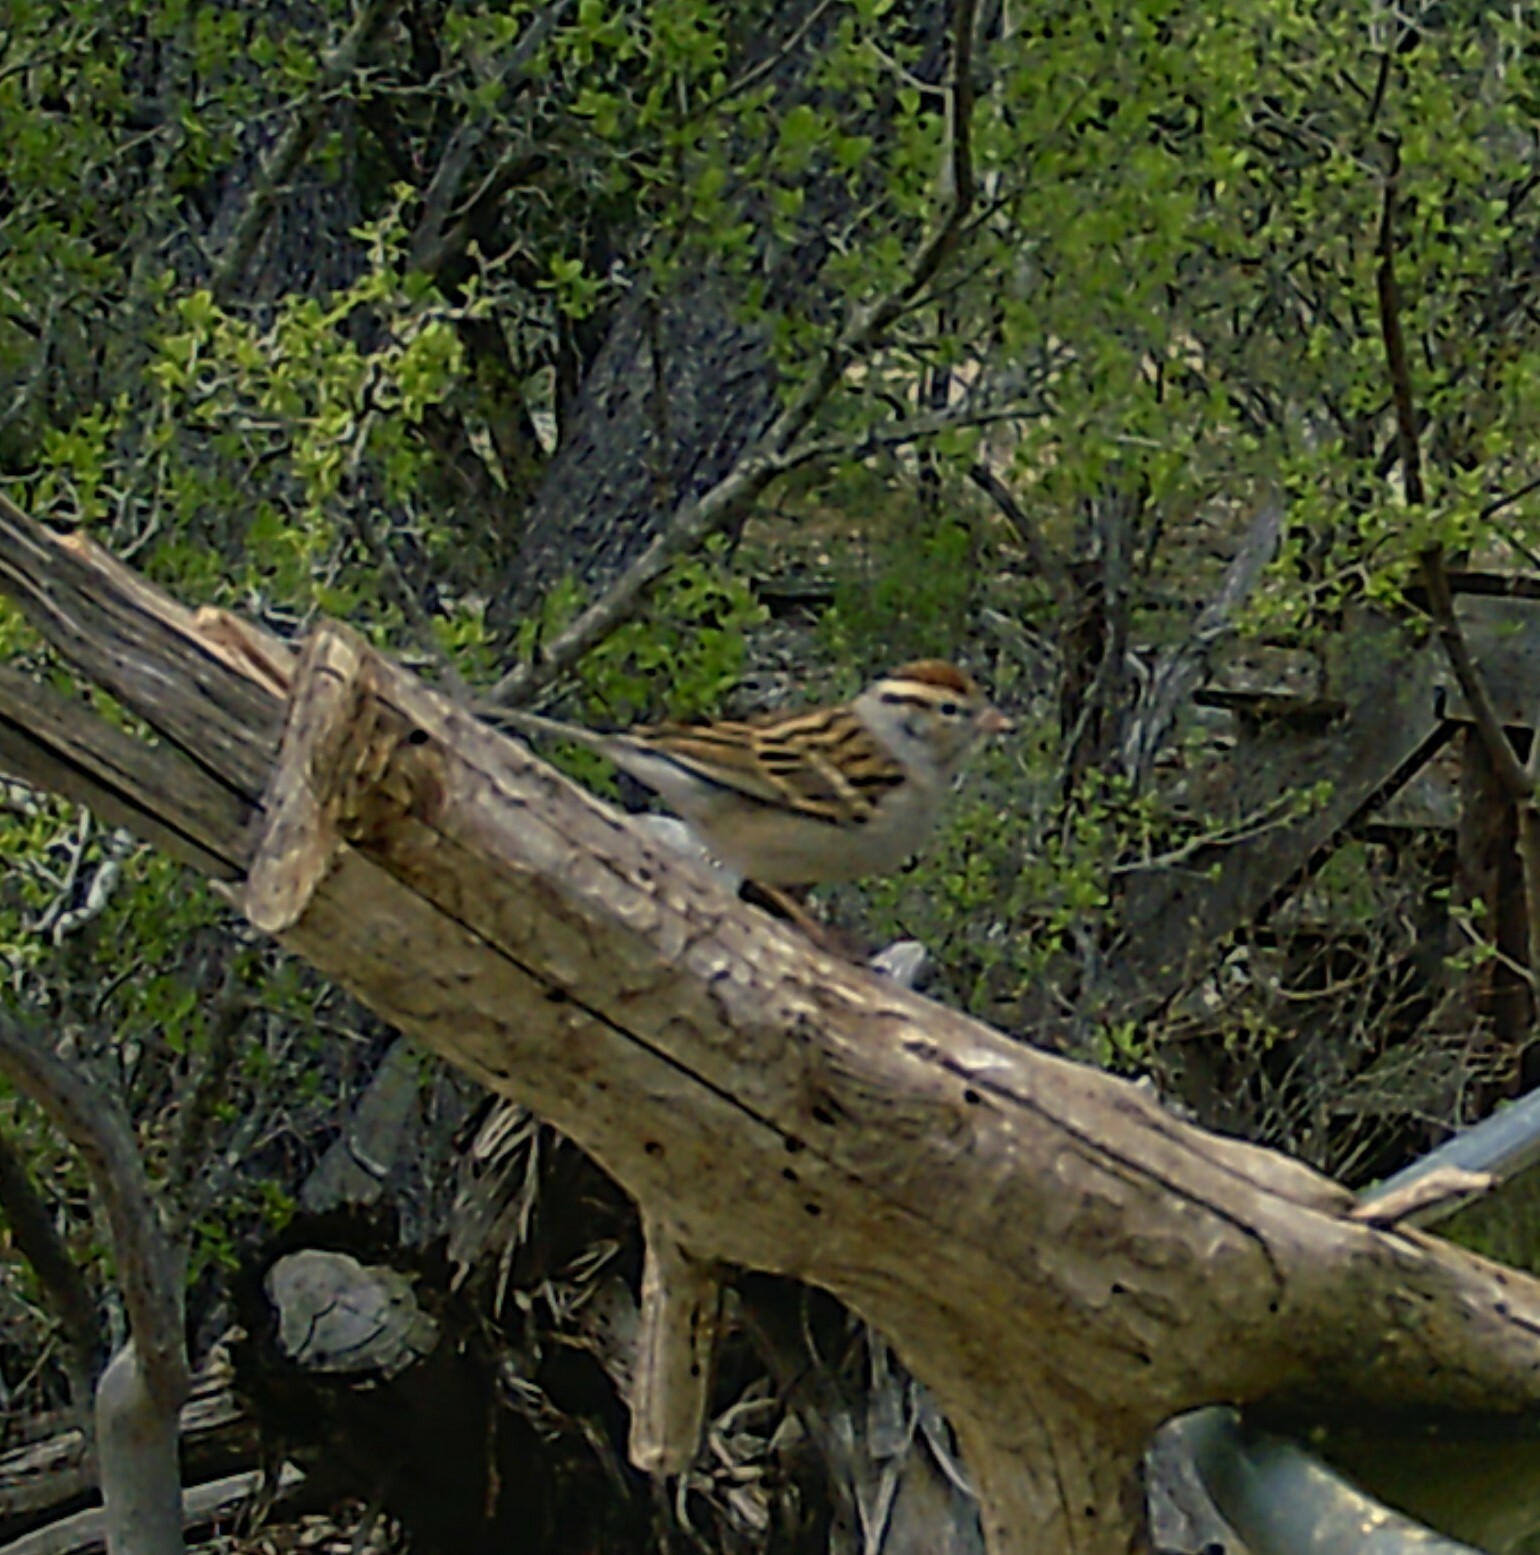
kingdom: Animalia
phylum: Chordata
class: Aves
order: Passeriformes
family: Passerellidae
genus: Spizella
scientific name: Spizella passerina
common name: Chipping sparrow
